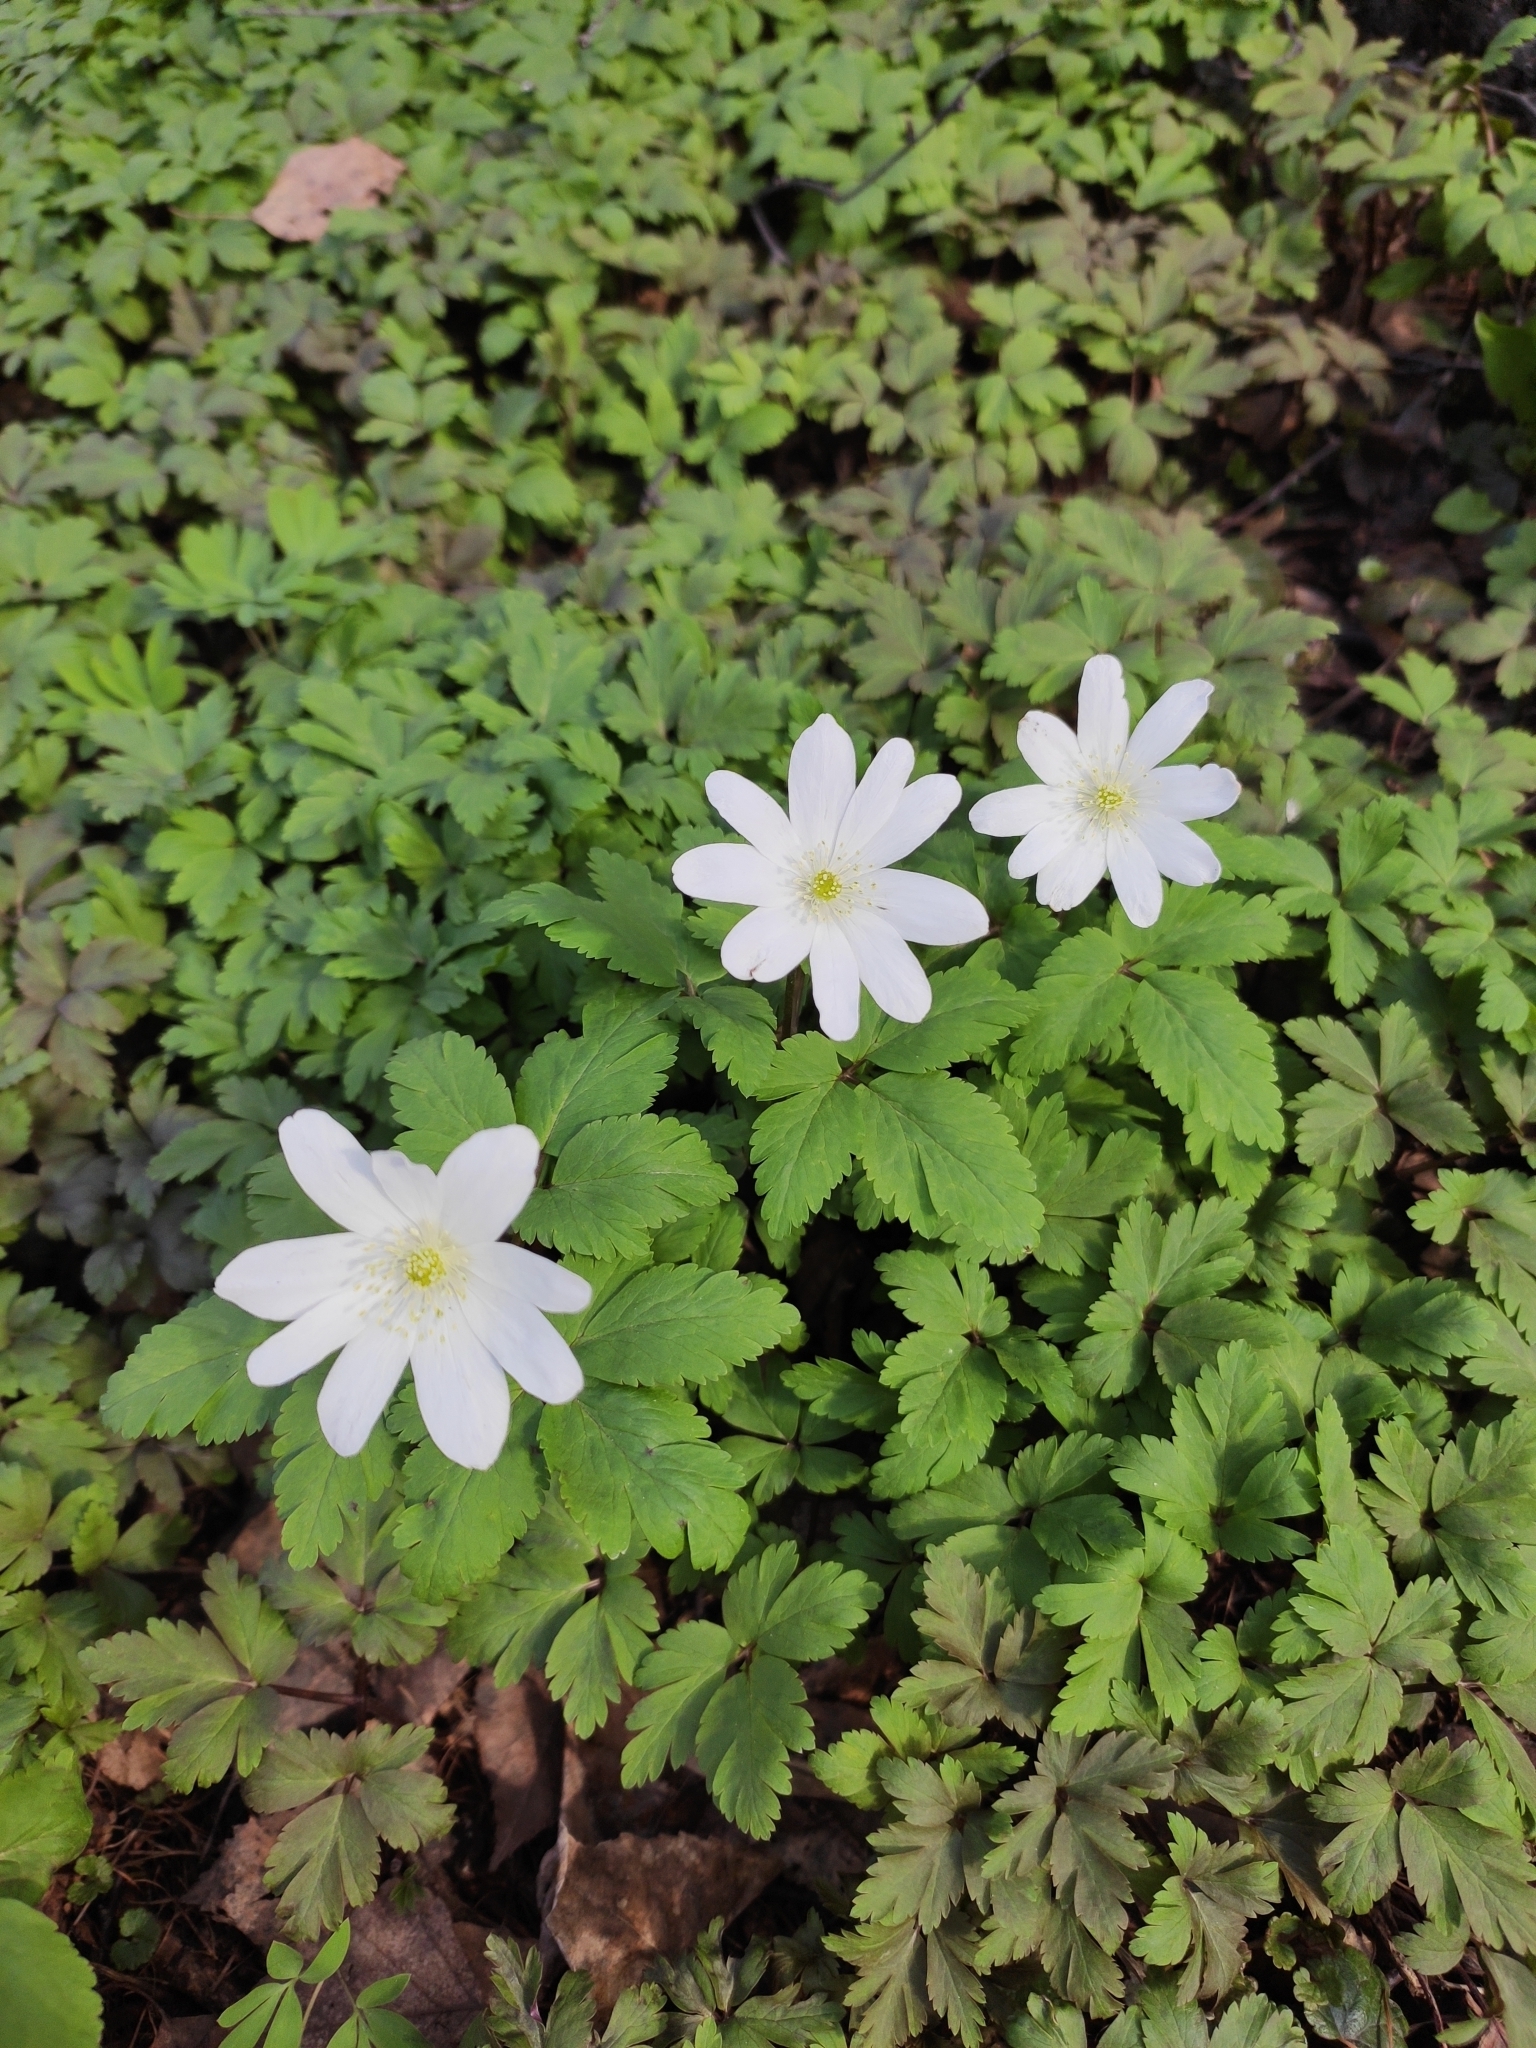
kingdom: Plantae
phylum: Tracheophyta
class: Magnoliopsida
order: Ranunculales
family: Ranunculaceae
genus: Anemone
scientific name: Anemone altaica
